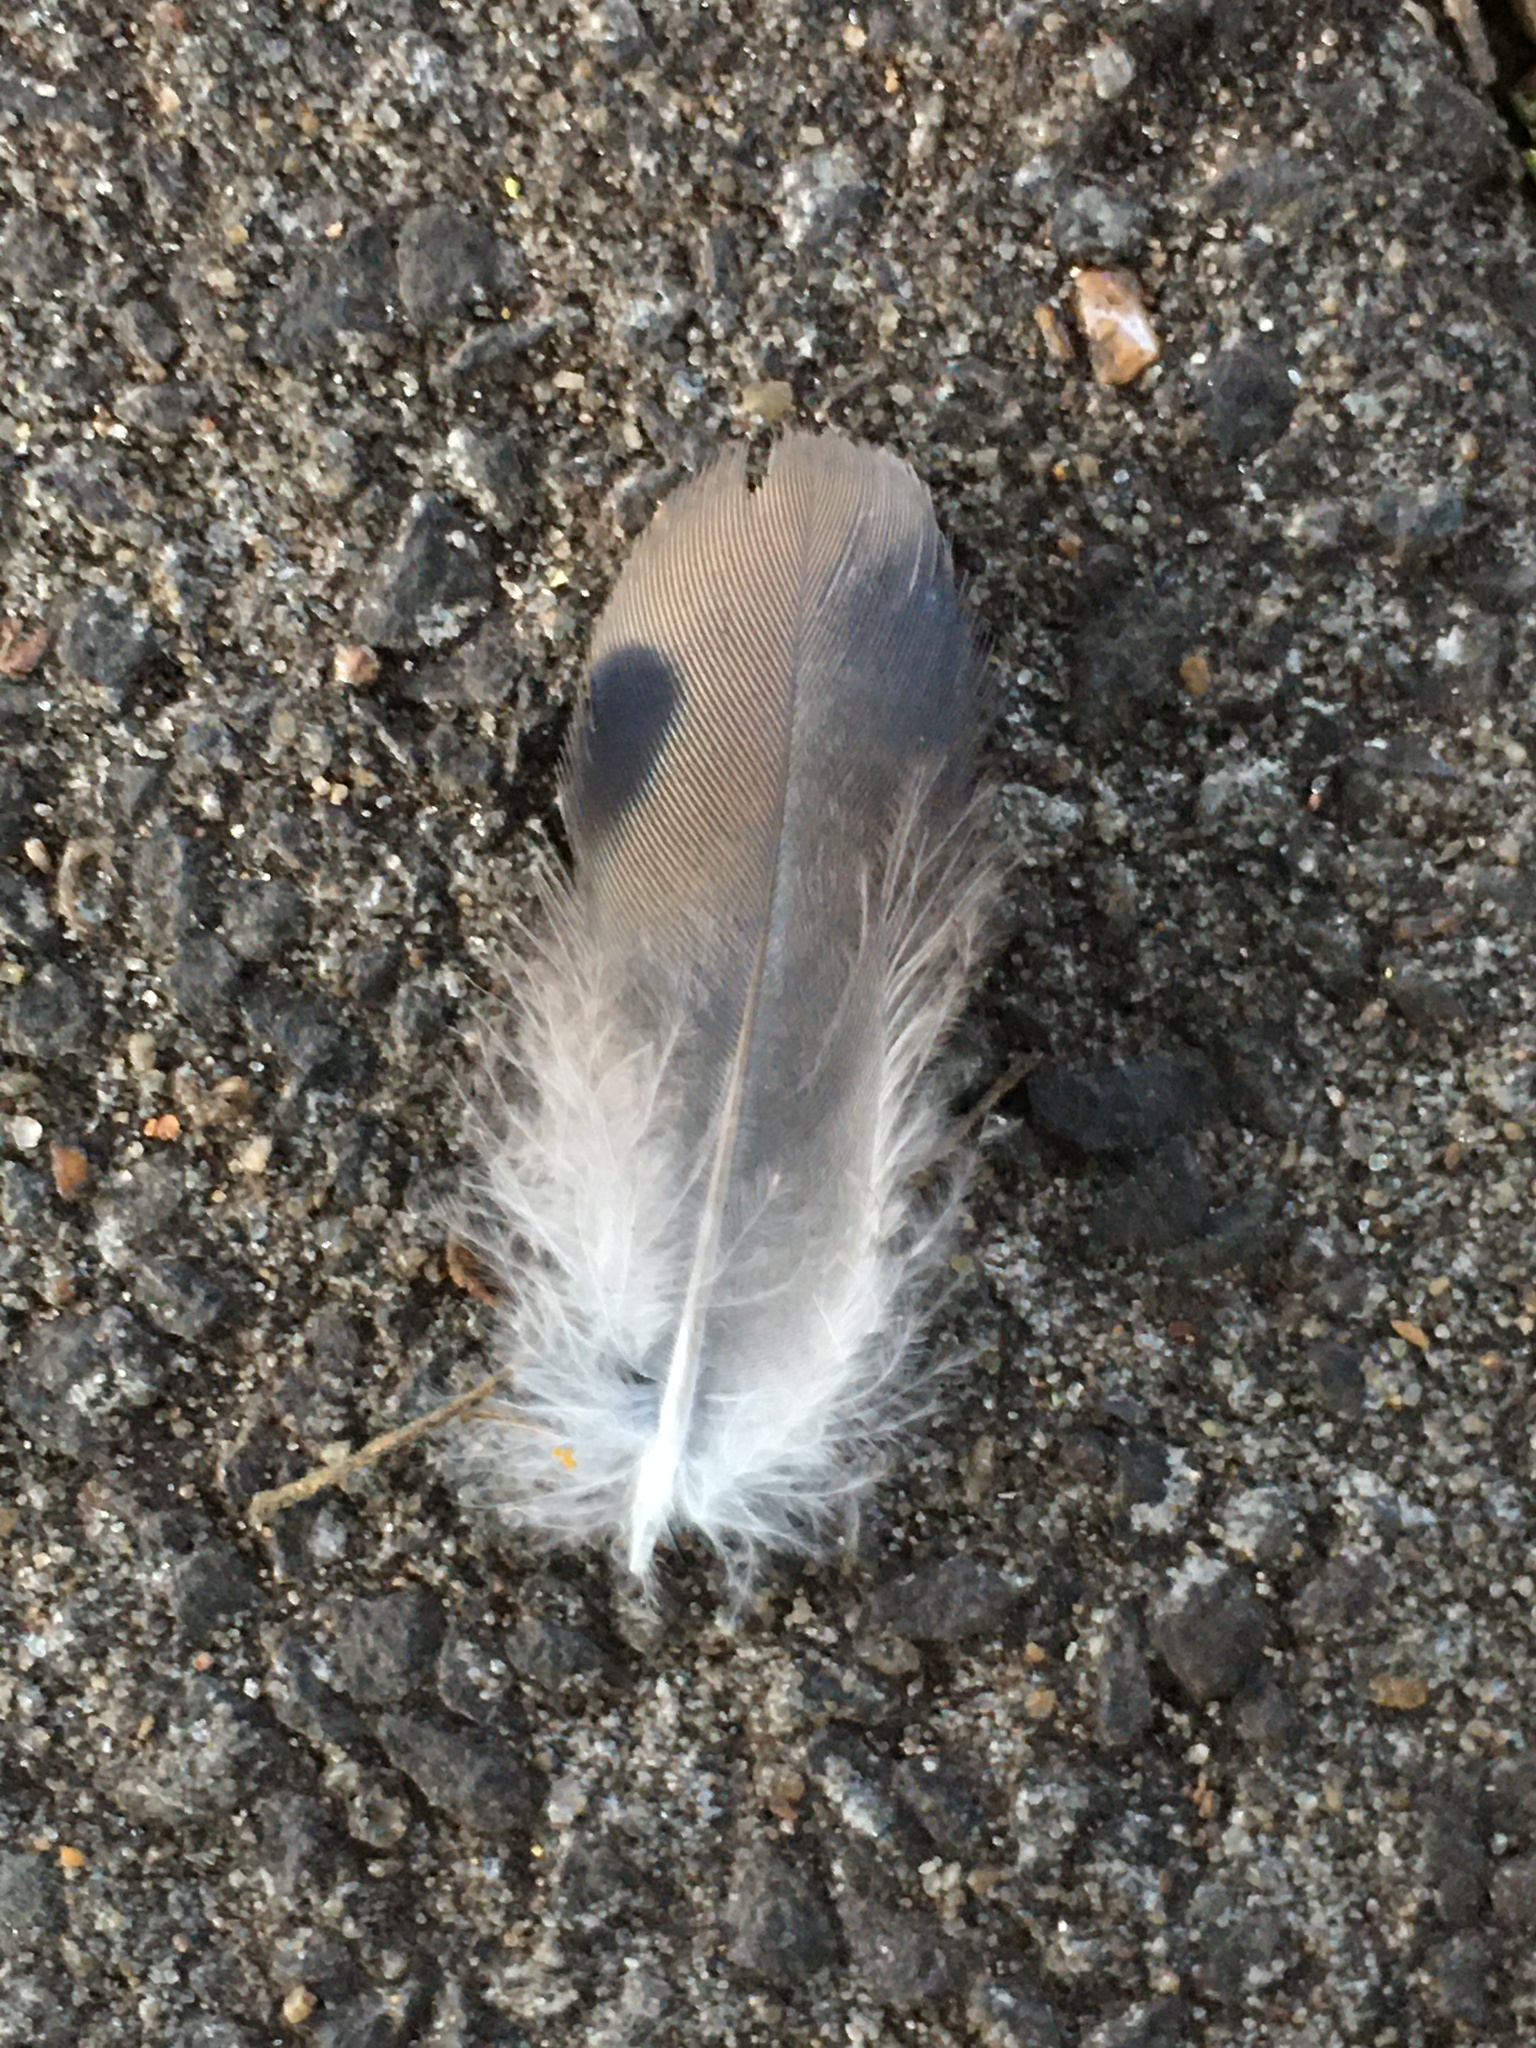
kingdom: Animalia
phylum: Chordata
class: Aves
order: Columbiformes
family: Columbidae
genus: Zenaida
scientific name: Zenaida auriculata
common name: Eared dove
